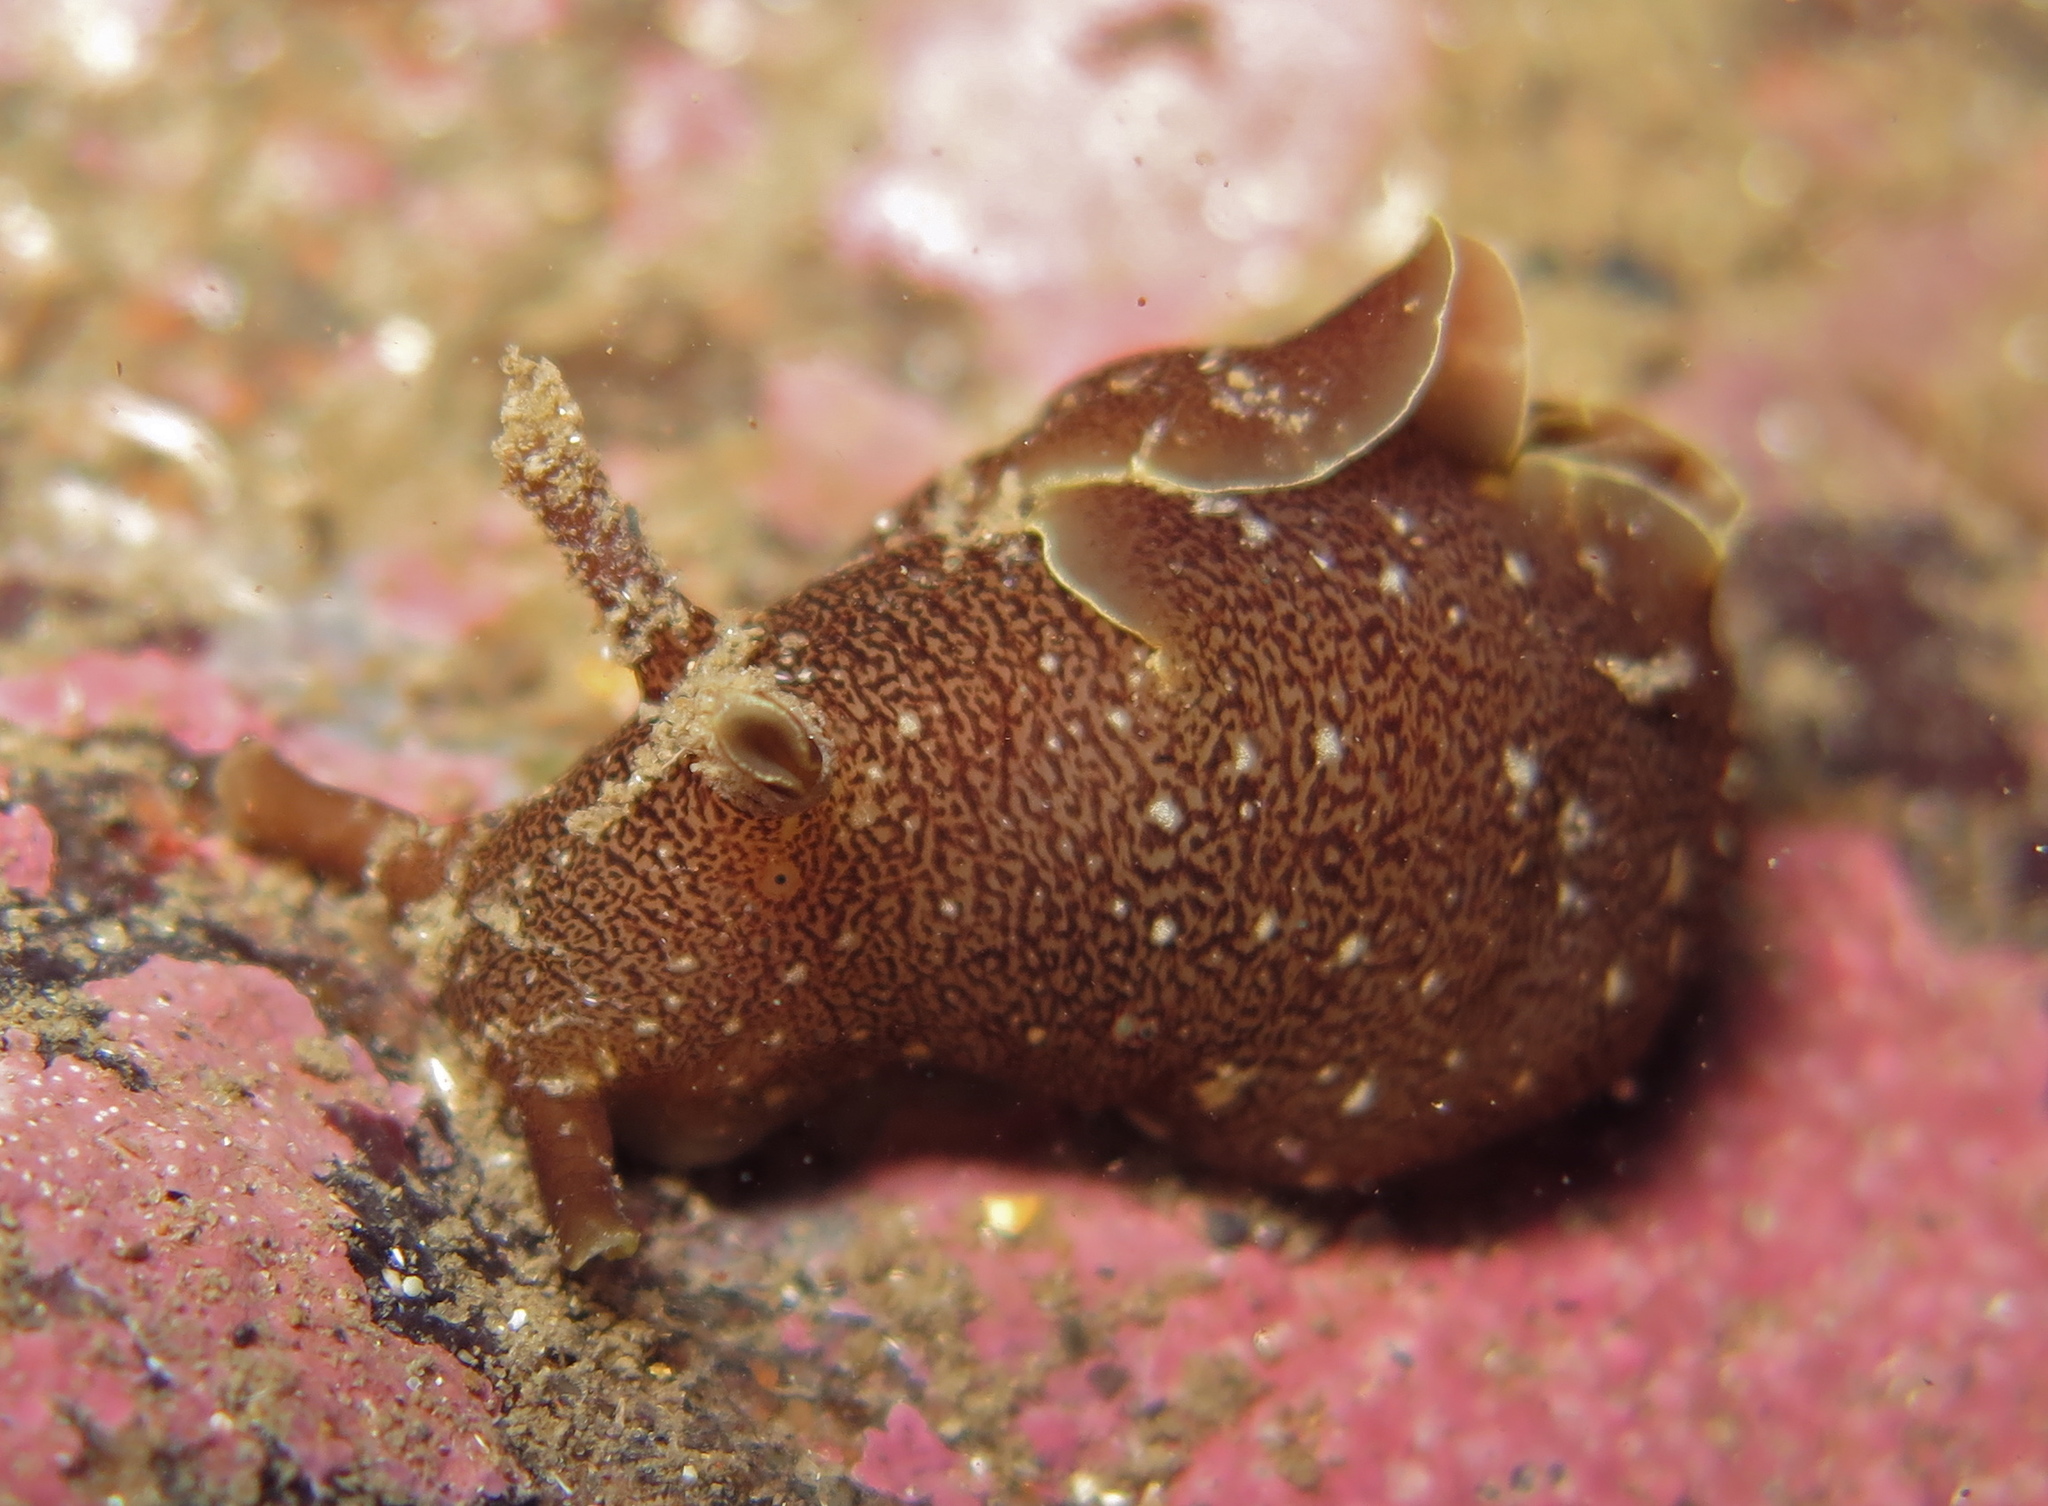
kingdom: Animalia
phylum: Mollusca
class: Gastropoda
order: Aplysiida
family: Aplysiidae
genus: Aplysia
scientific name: Aplysia punctata
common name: Common sea hare
